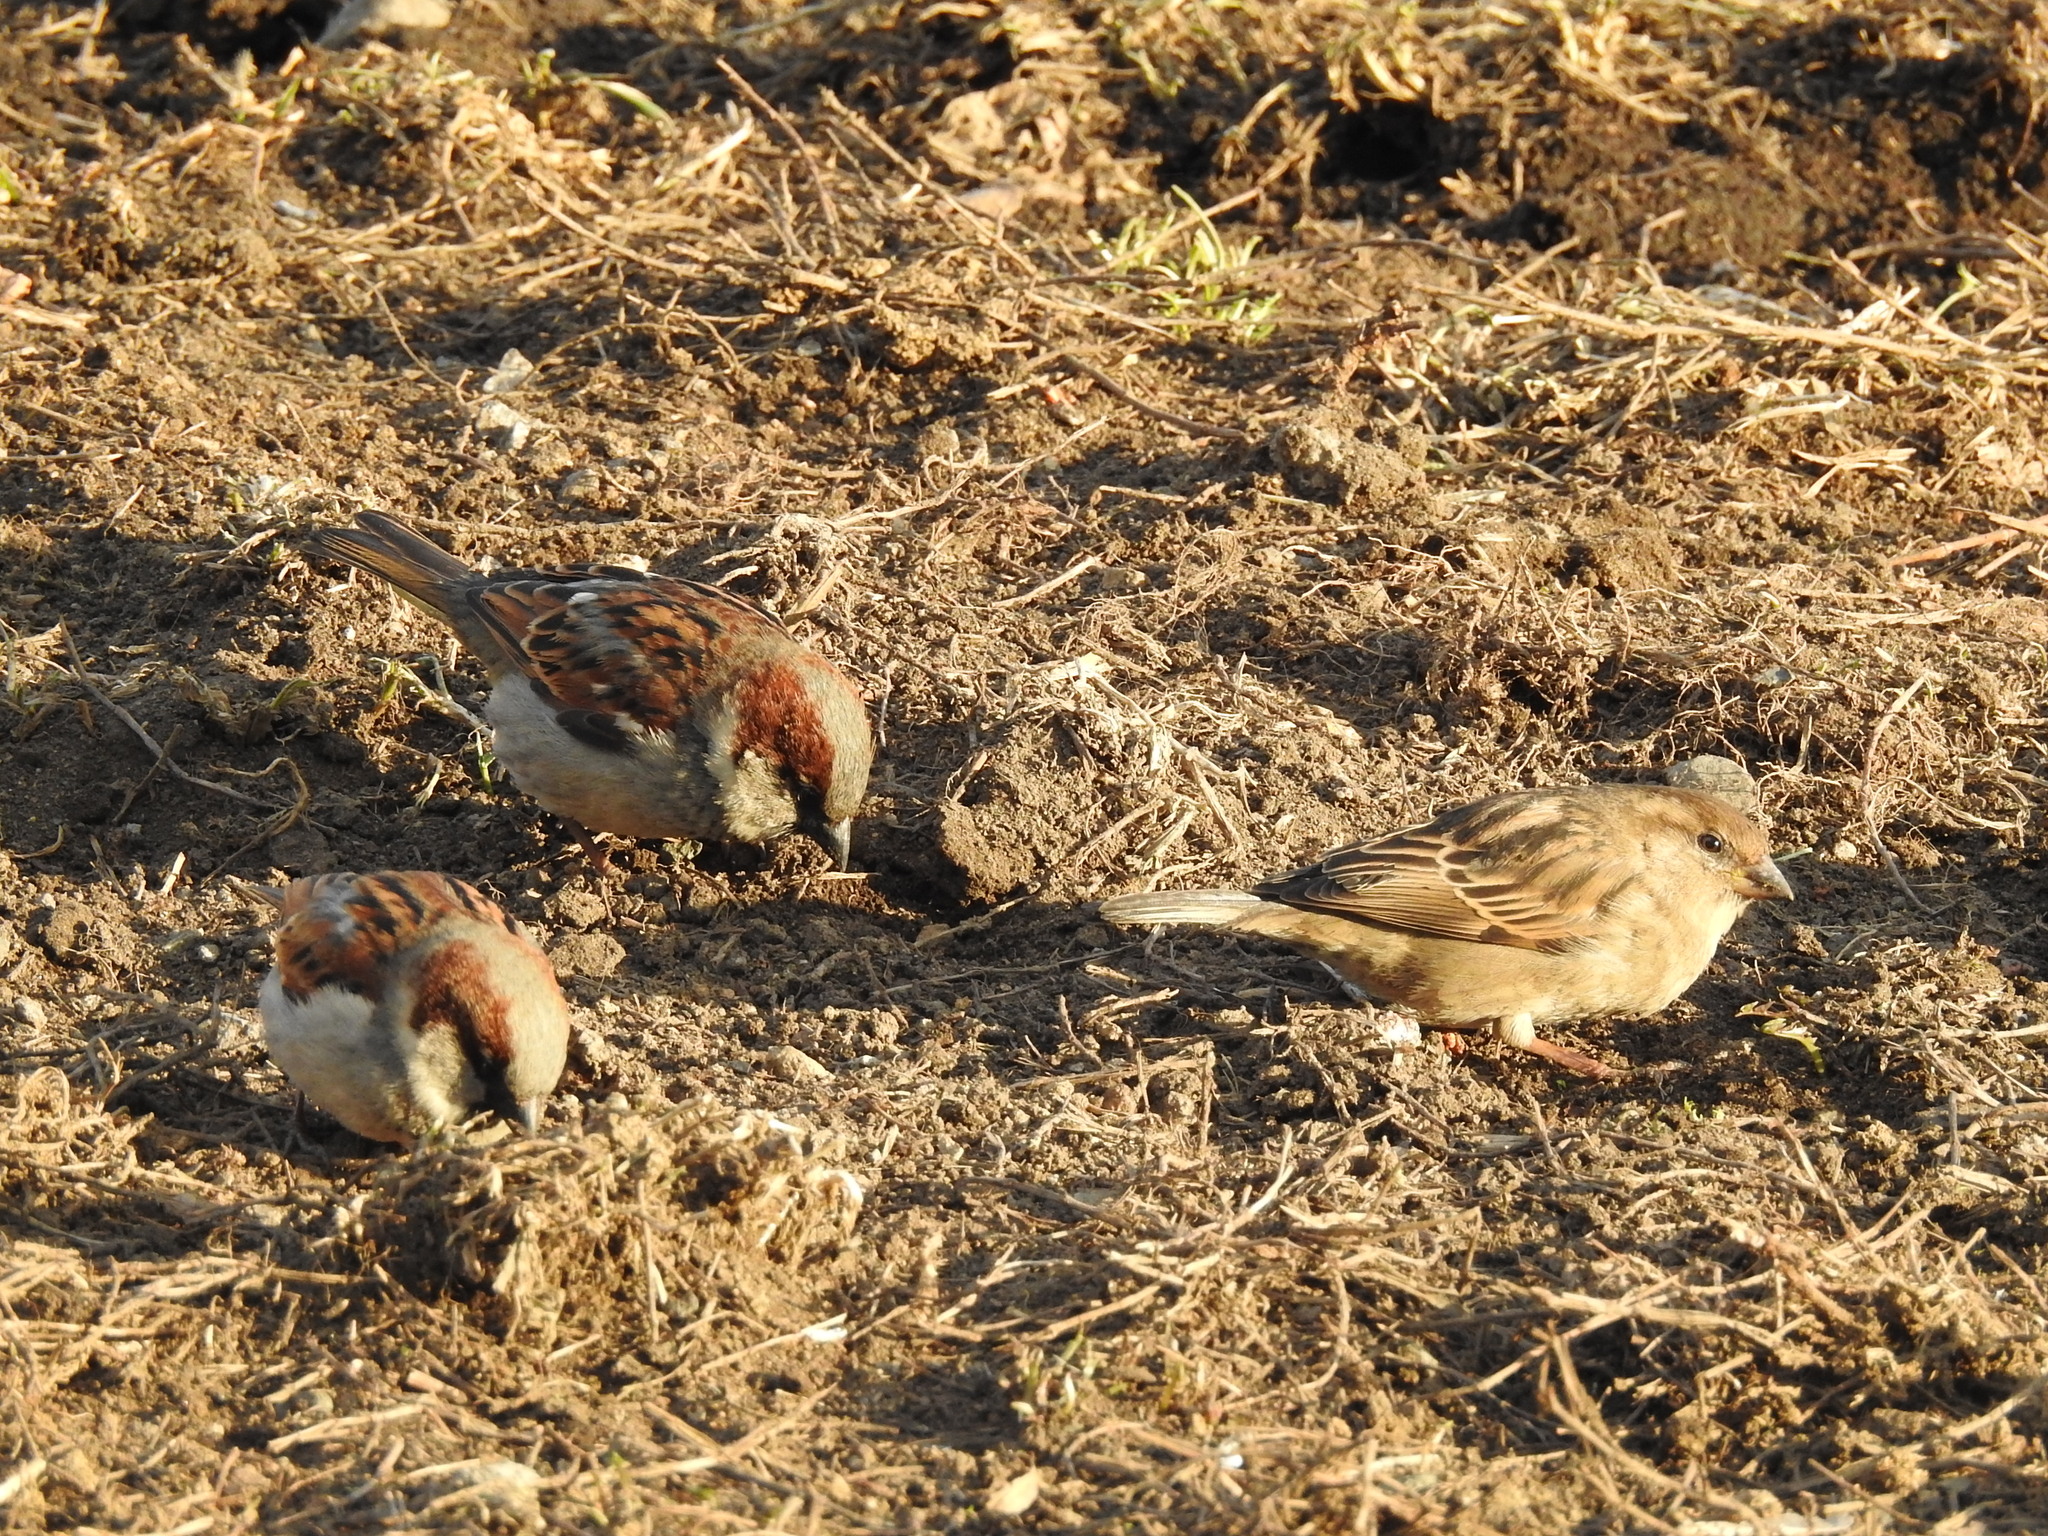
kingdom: Animalia
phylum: Chordata
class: Aves
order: Passeriformes
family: Passeridae
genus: Passer
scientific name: Passer domesticus
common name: House sparrow
